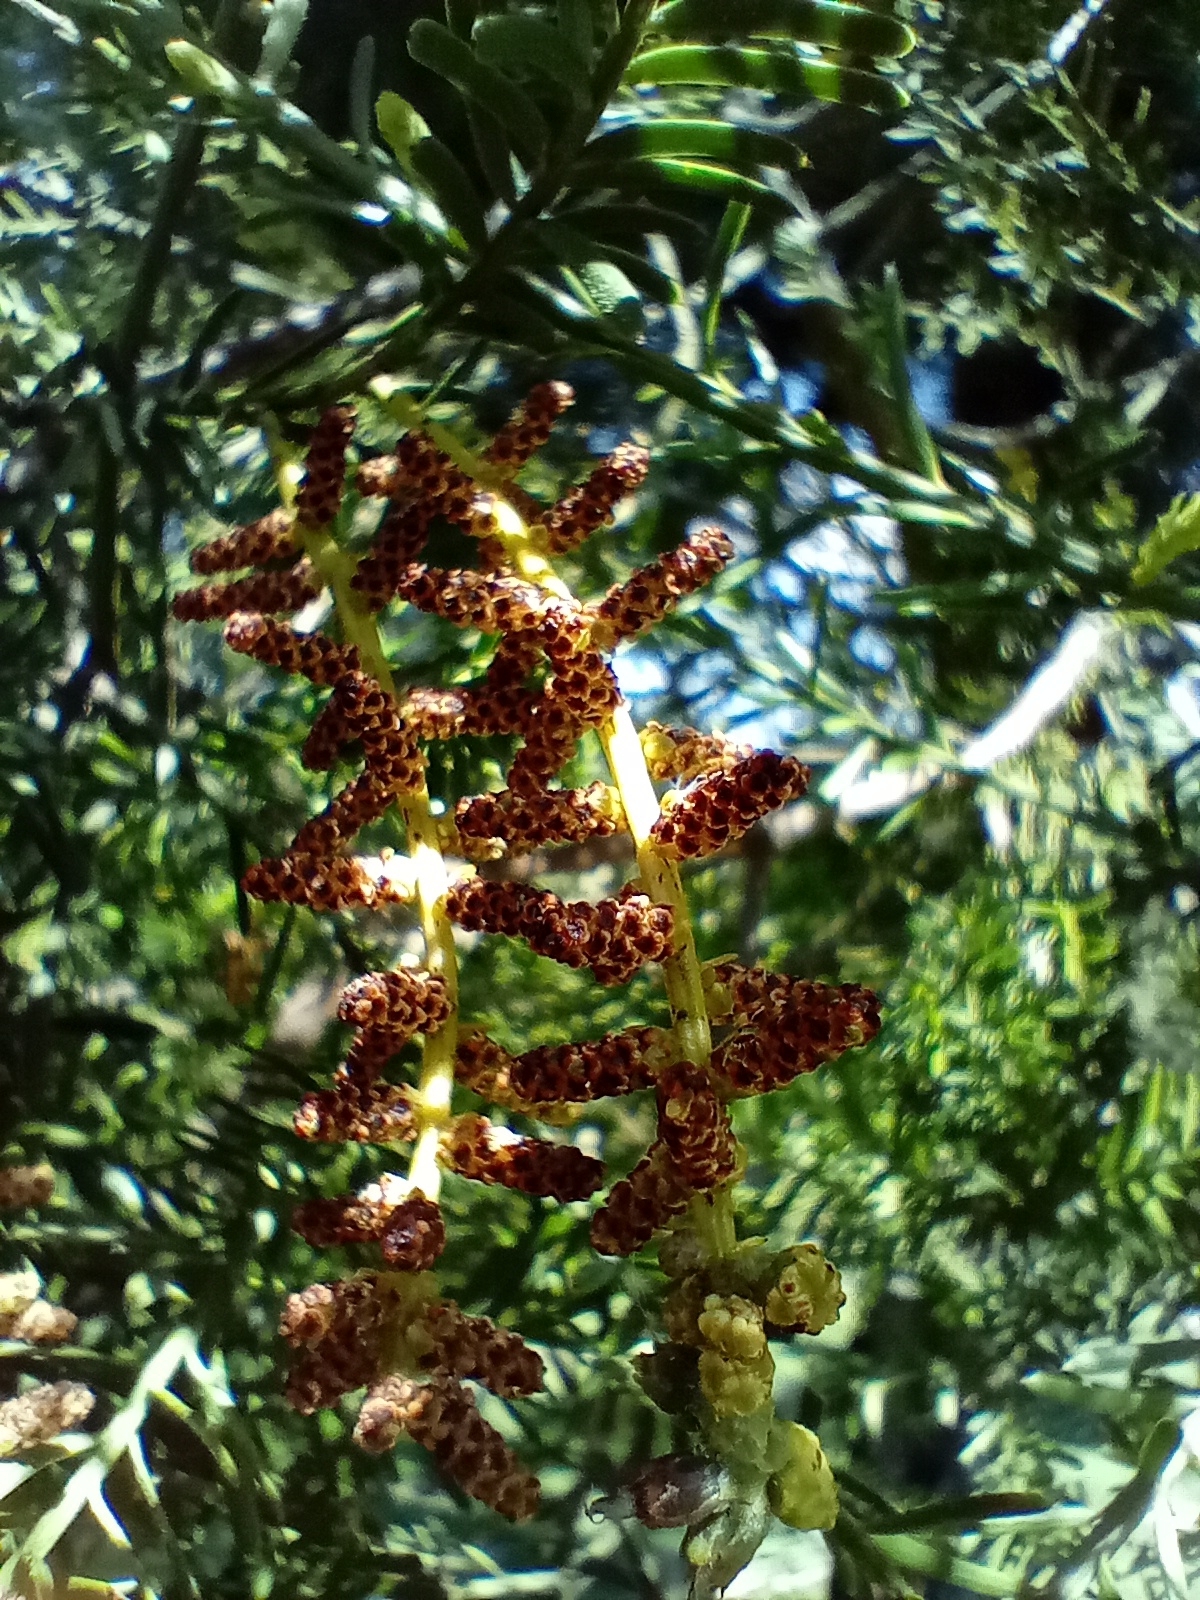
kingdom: Plantae
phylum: Tracheophyta
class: Pinopsida
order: Pinales
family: Podocarpaceae
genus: Prumnopitys
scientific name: Prumnopitys taxifolia
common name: Matai
